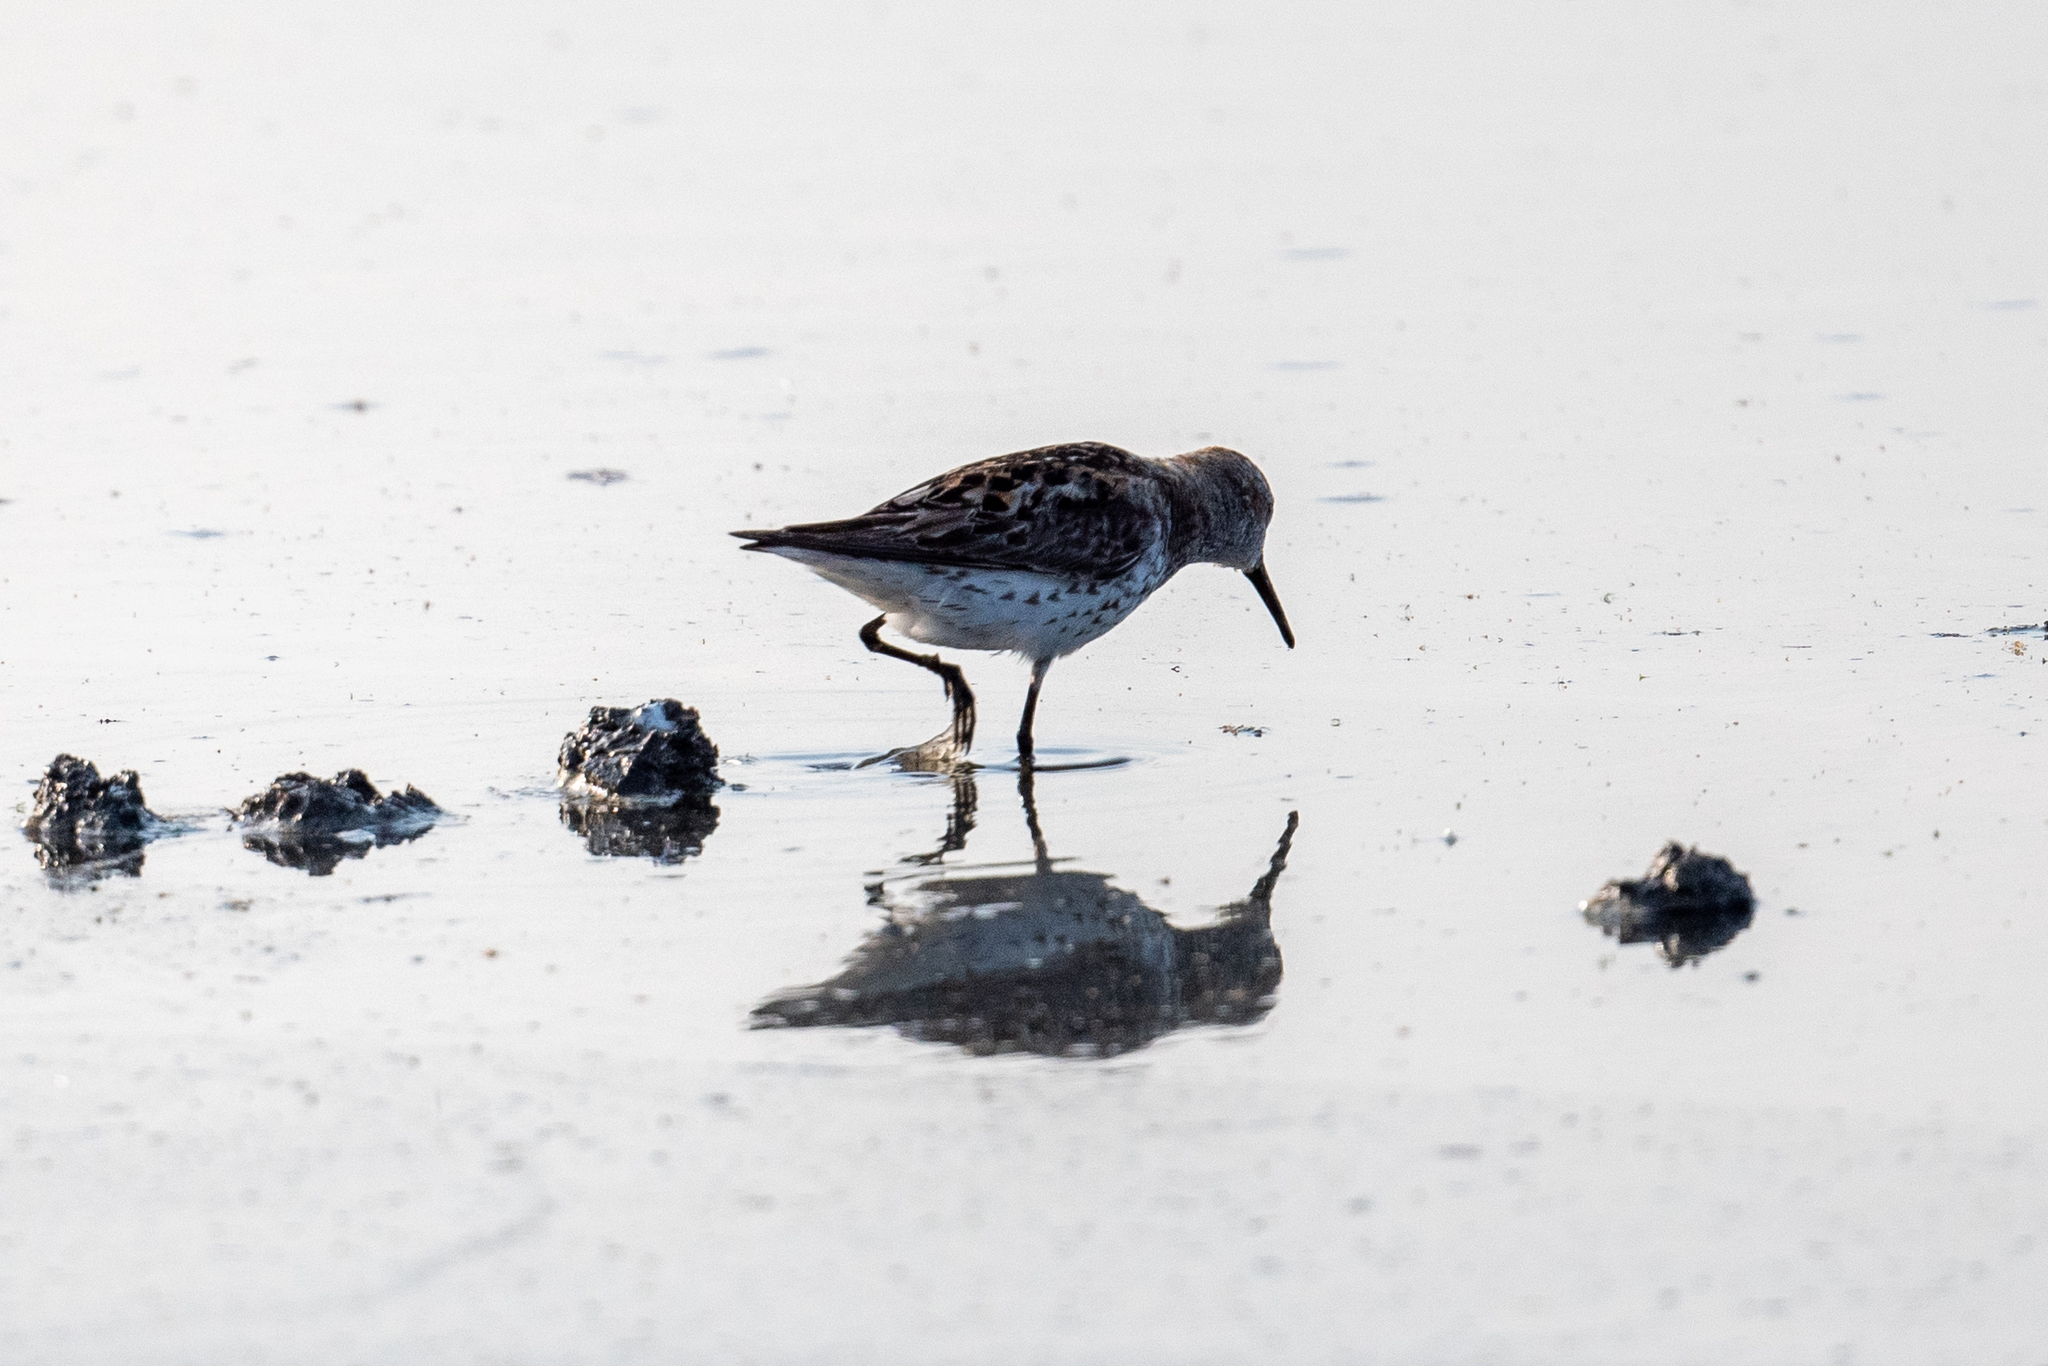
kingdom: Animalia
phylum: Chordata
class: Aves
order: Charadriiformes
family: Scolopacidae
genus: Calidris
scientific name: Calidris mauri
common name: Western sandpiper
